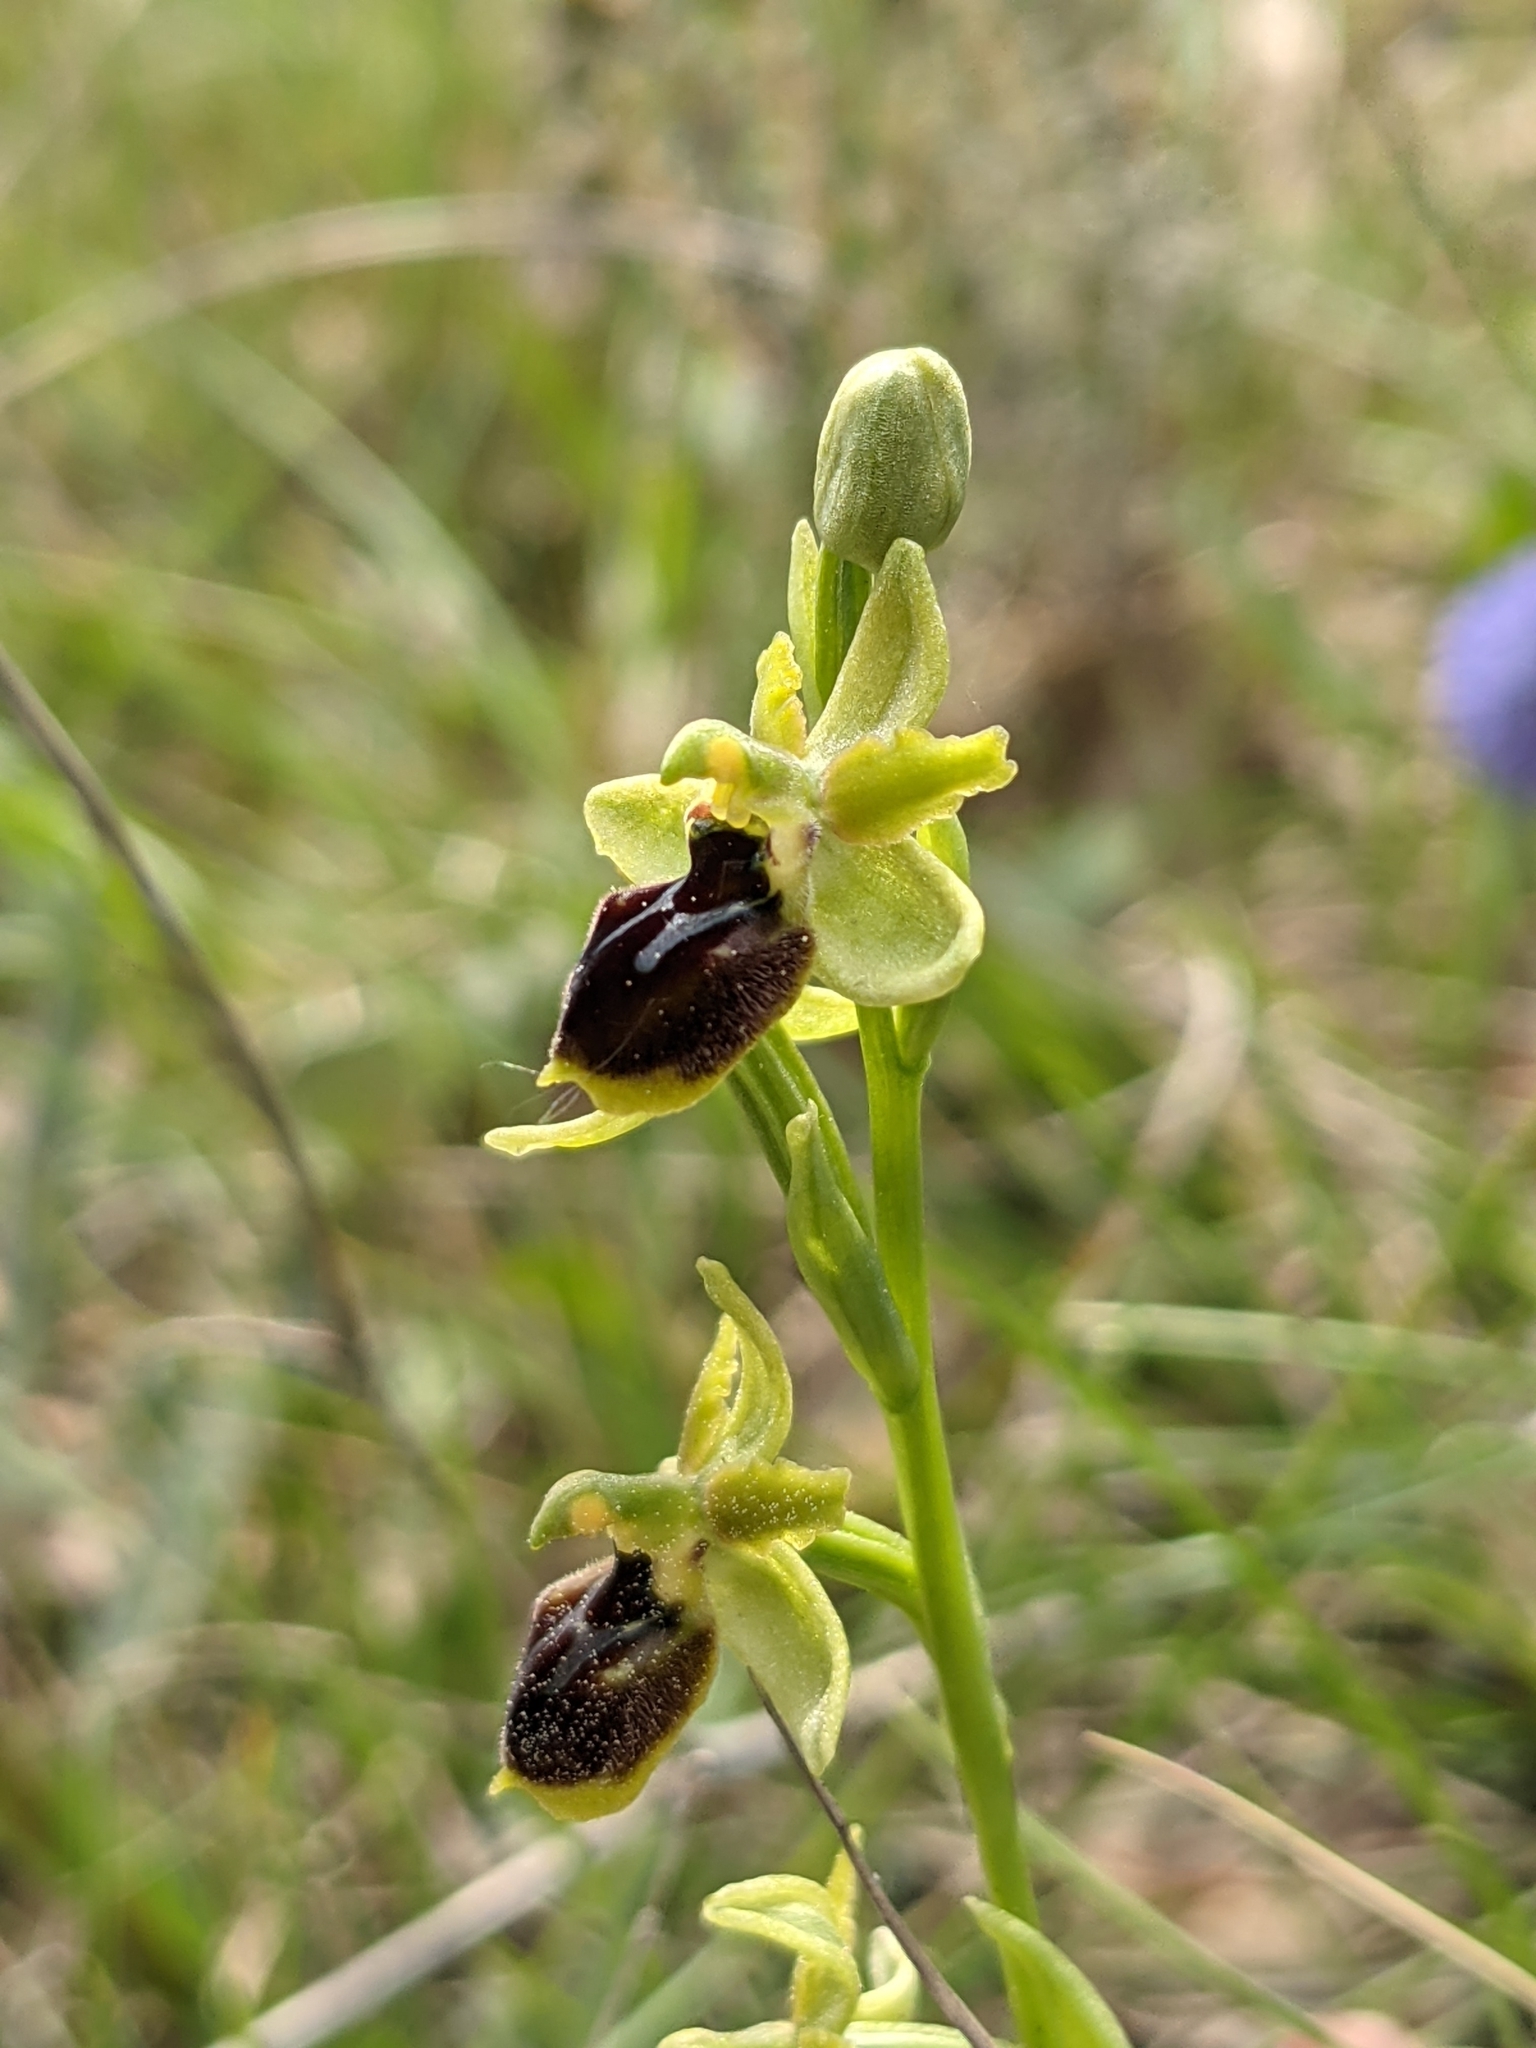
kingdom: Plantae
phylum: Tracheophyta
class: Liliopsida
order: Asparagales
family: Orchidaceae
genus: Ophrys
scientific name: Ophrys sphegodes
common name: Early spider-orchid
